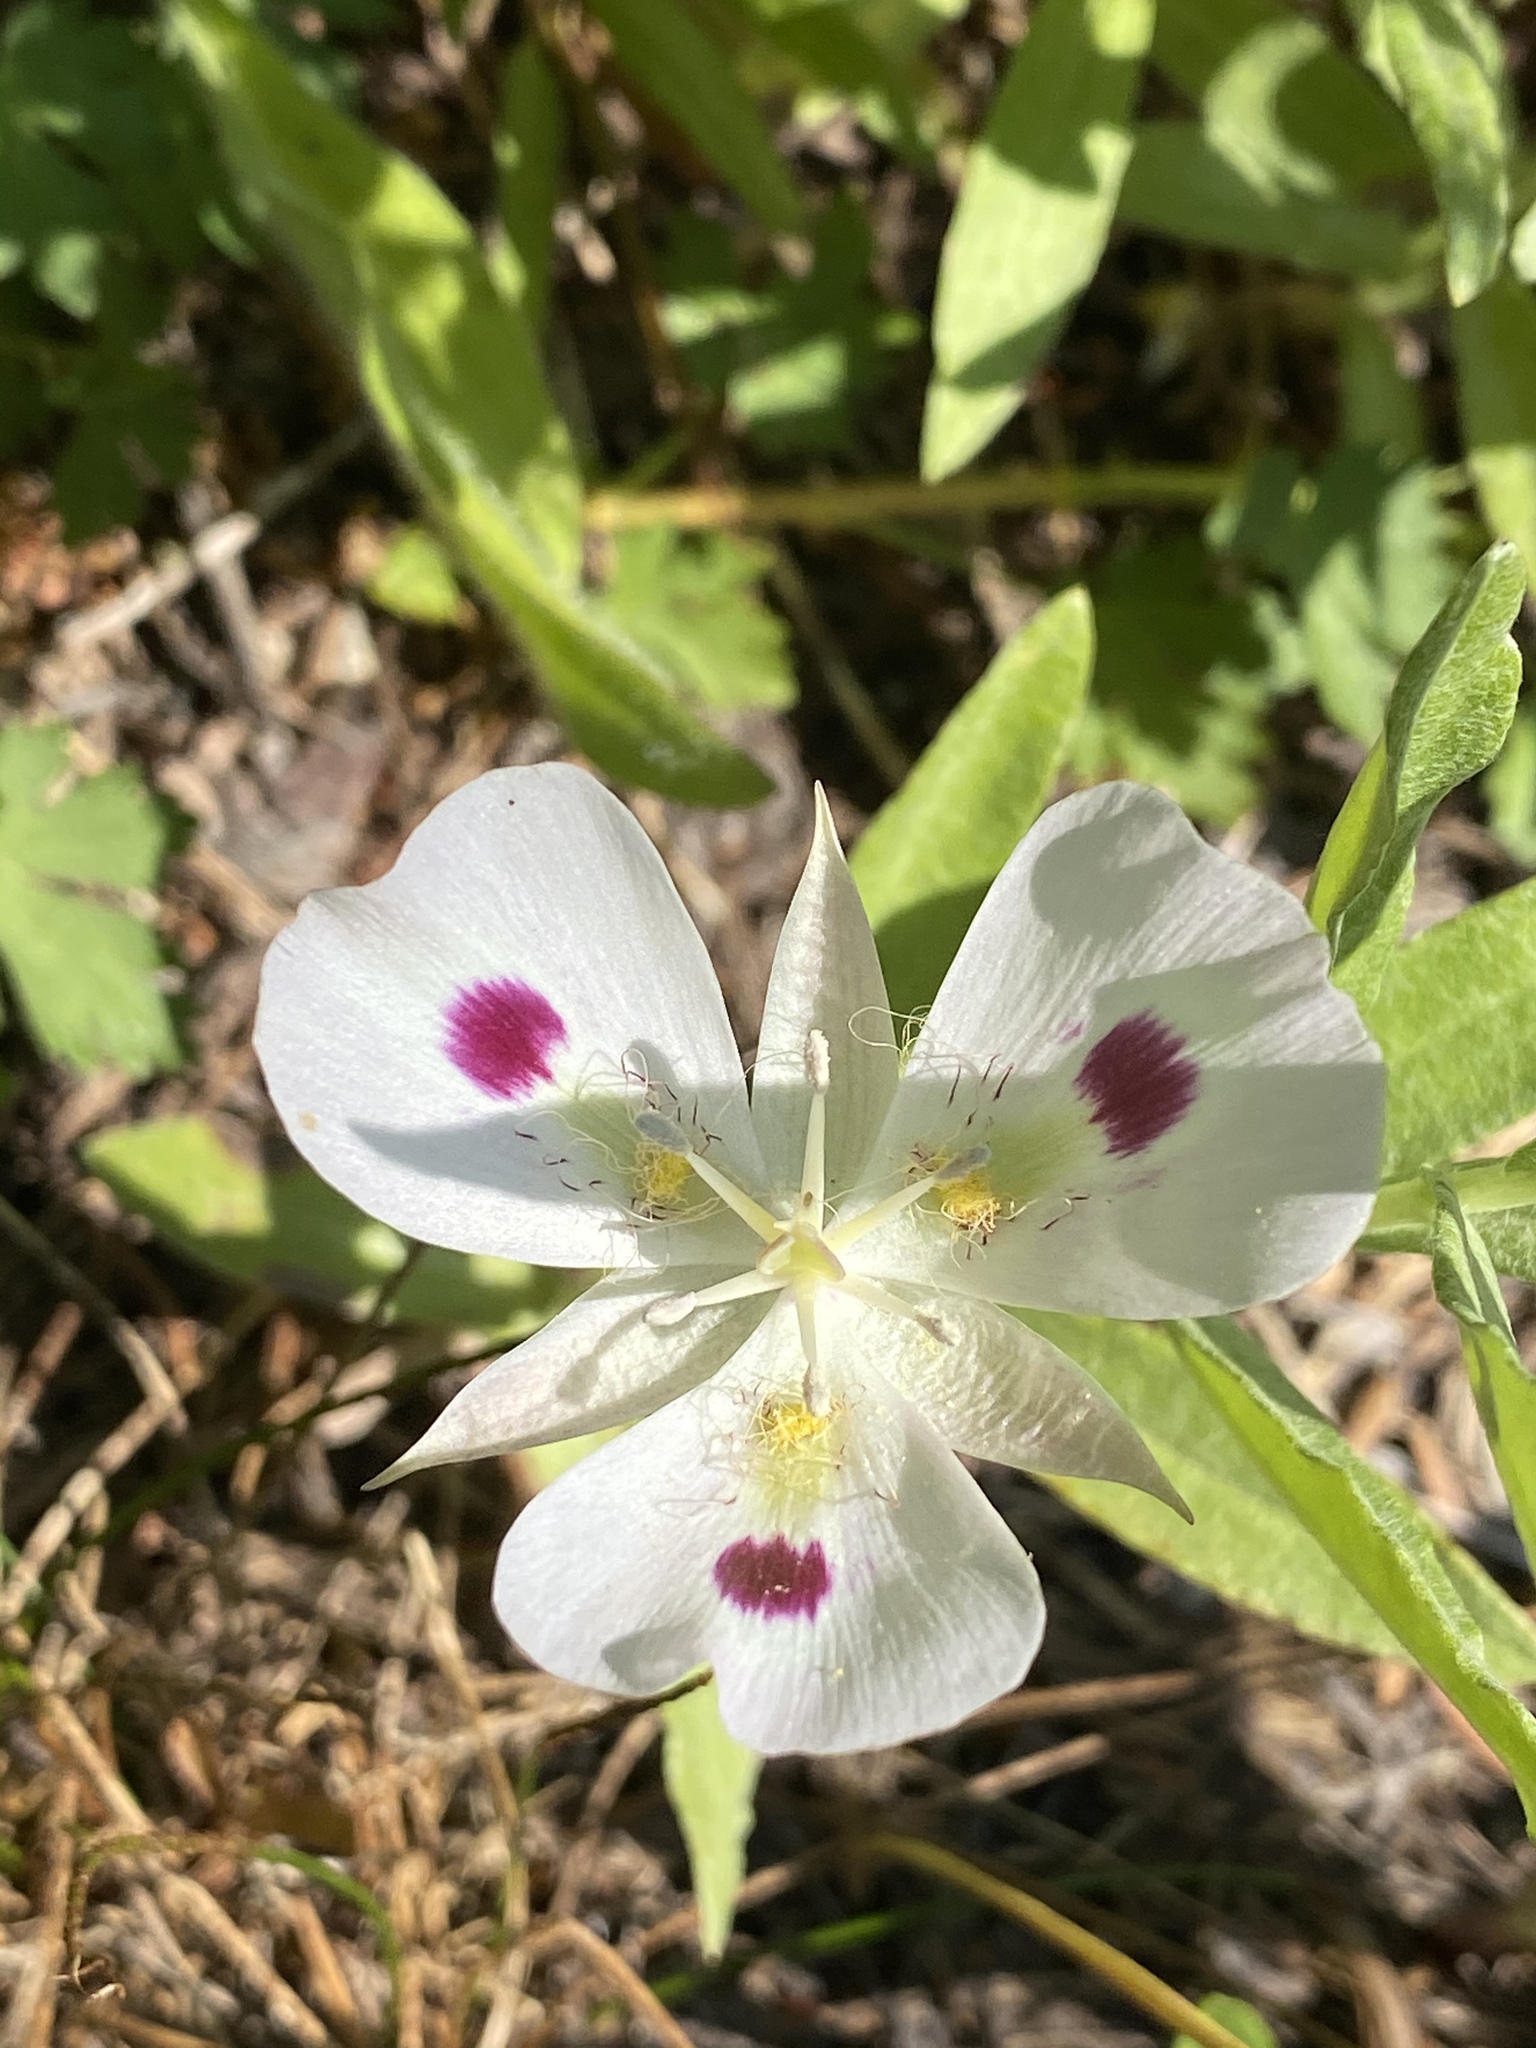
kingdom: Plantae
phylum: Tracheophyta
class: Liliopsida
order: Liliales
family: Liliaceae
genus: Calochortus
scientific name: Calochortus eurycarpus
